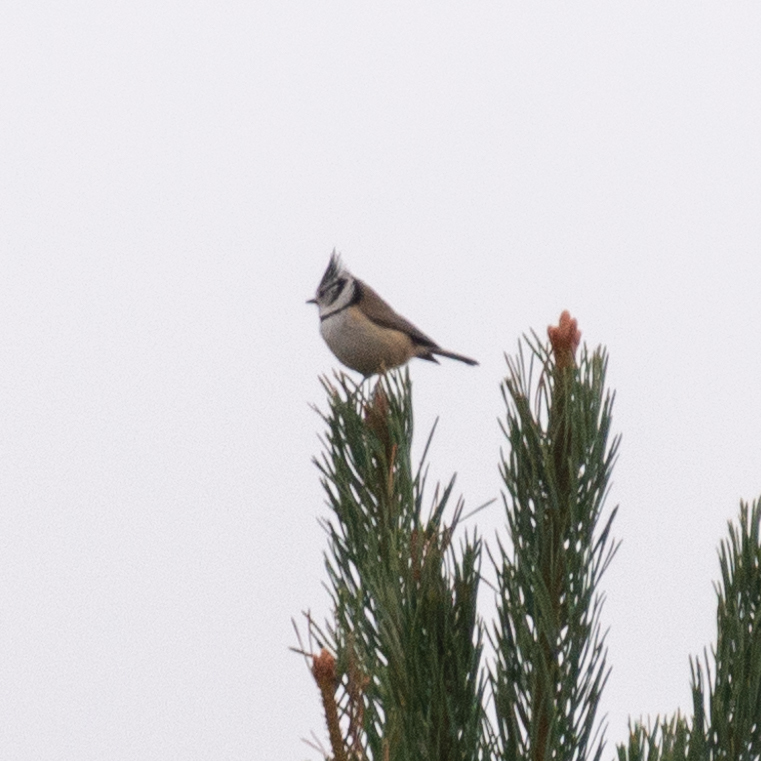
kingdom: Animalia
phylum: Chordata
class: Aves
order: Passeriformes
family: Paridae
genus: Lophophanes
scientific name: Lophophanes cristatus
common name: European crested tit
